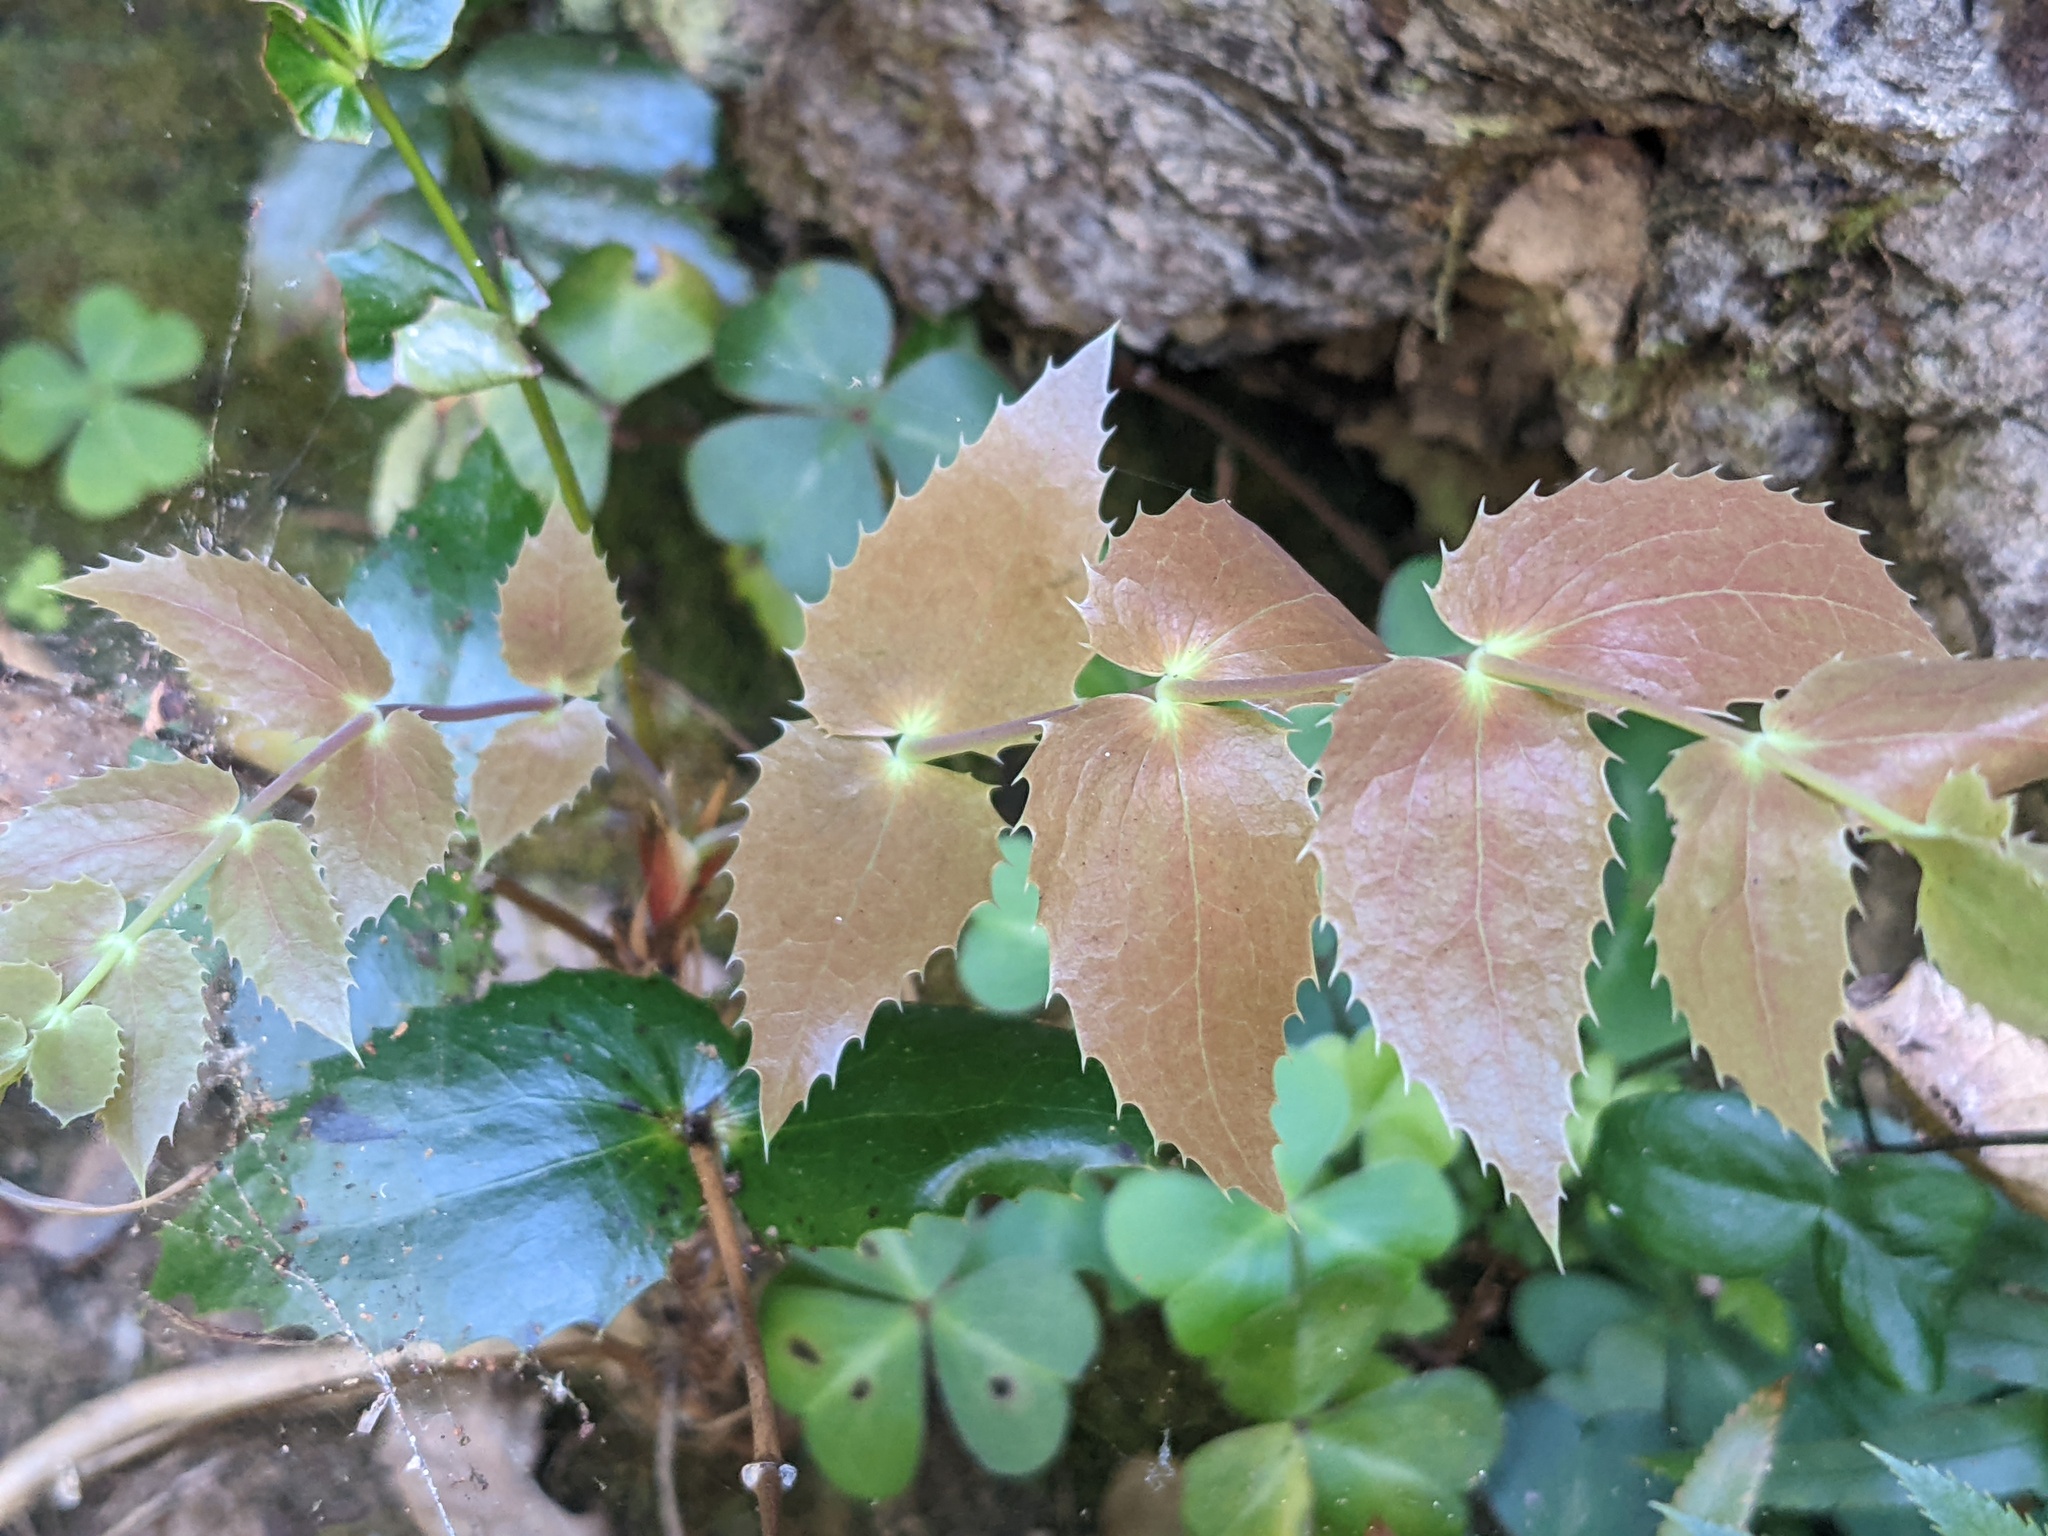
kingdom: Plantae
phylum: Tracheophyta
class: Magnoliopsida
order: Ranunculales
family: Berberidaceae
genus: Mahonia
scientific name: Mahonia nervosa
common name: Cascade oregon-grape
